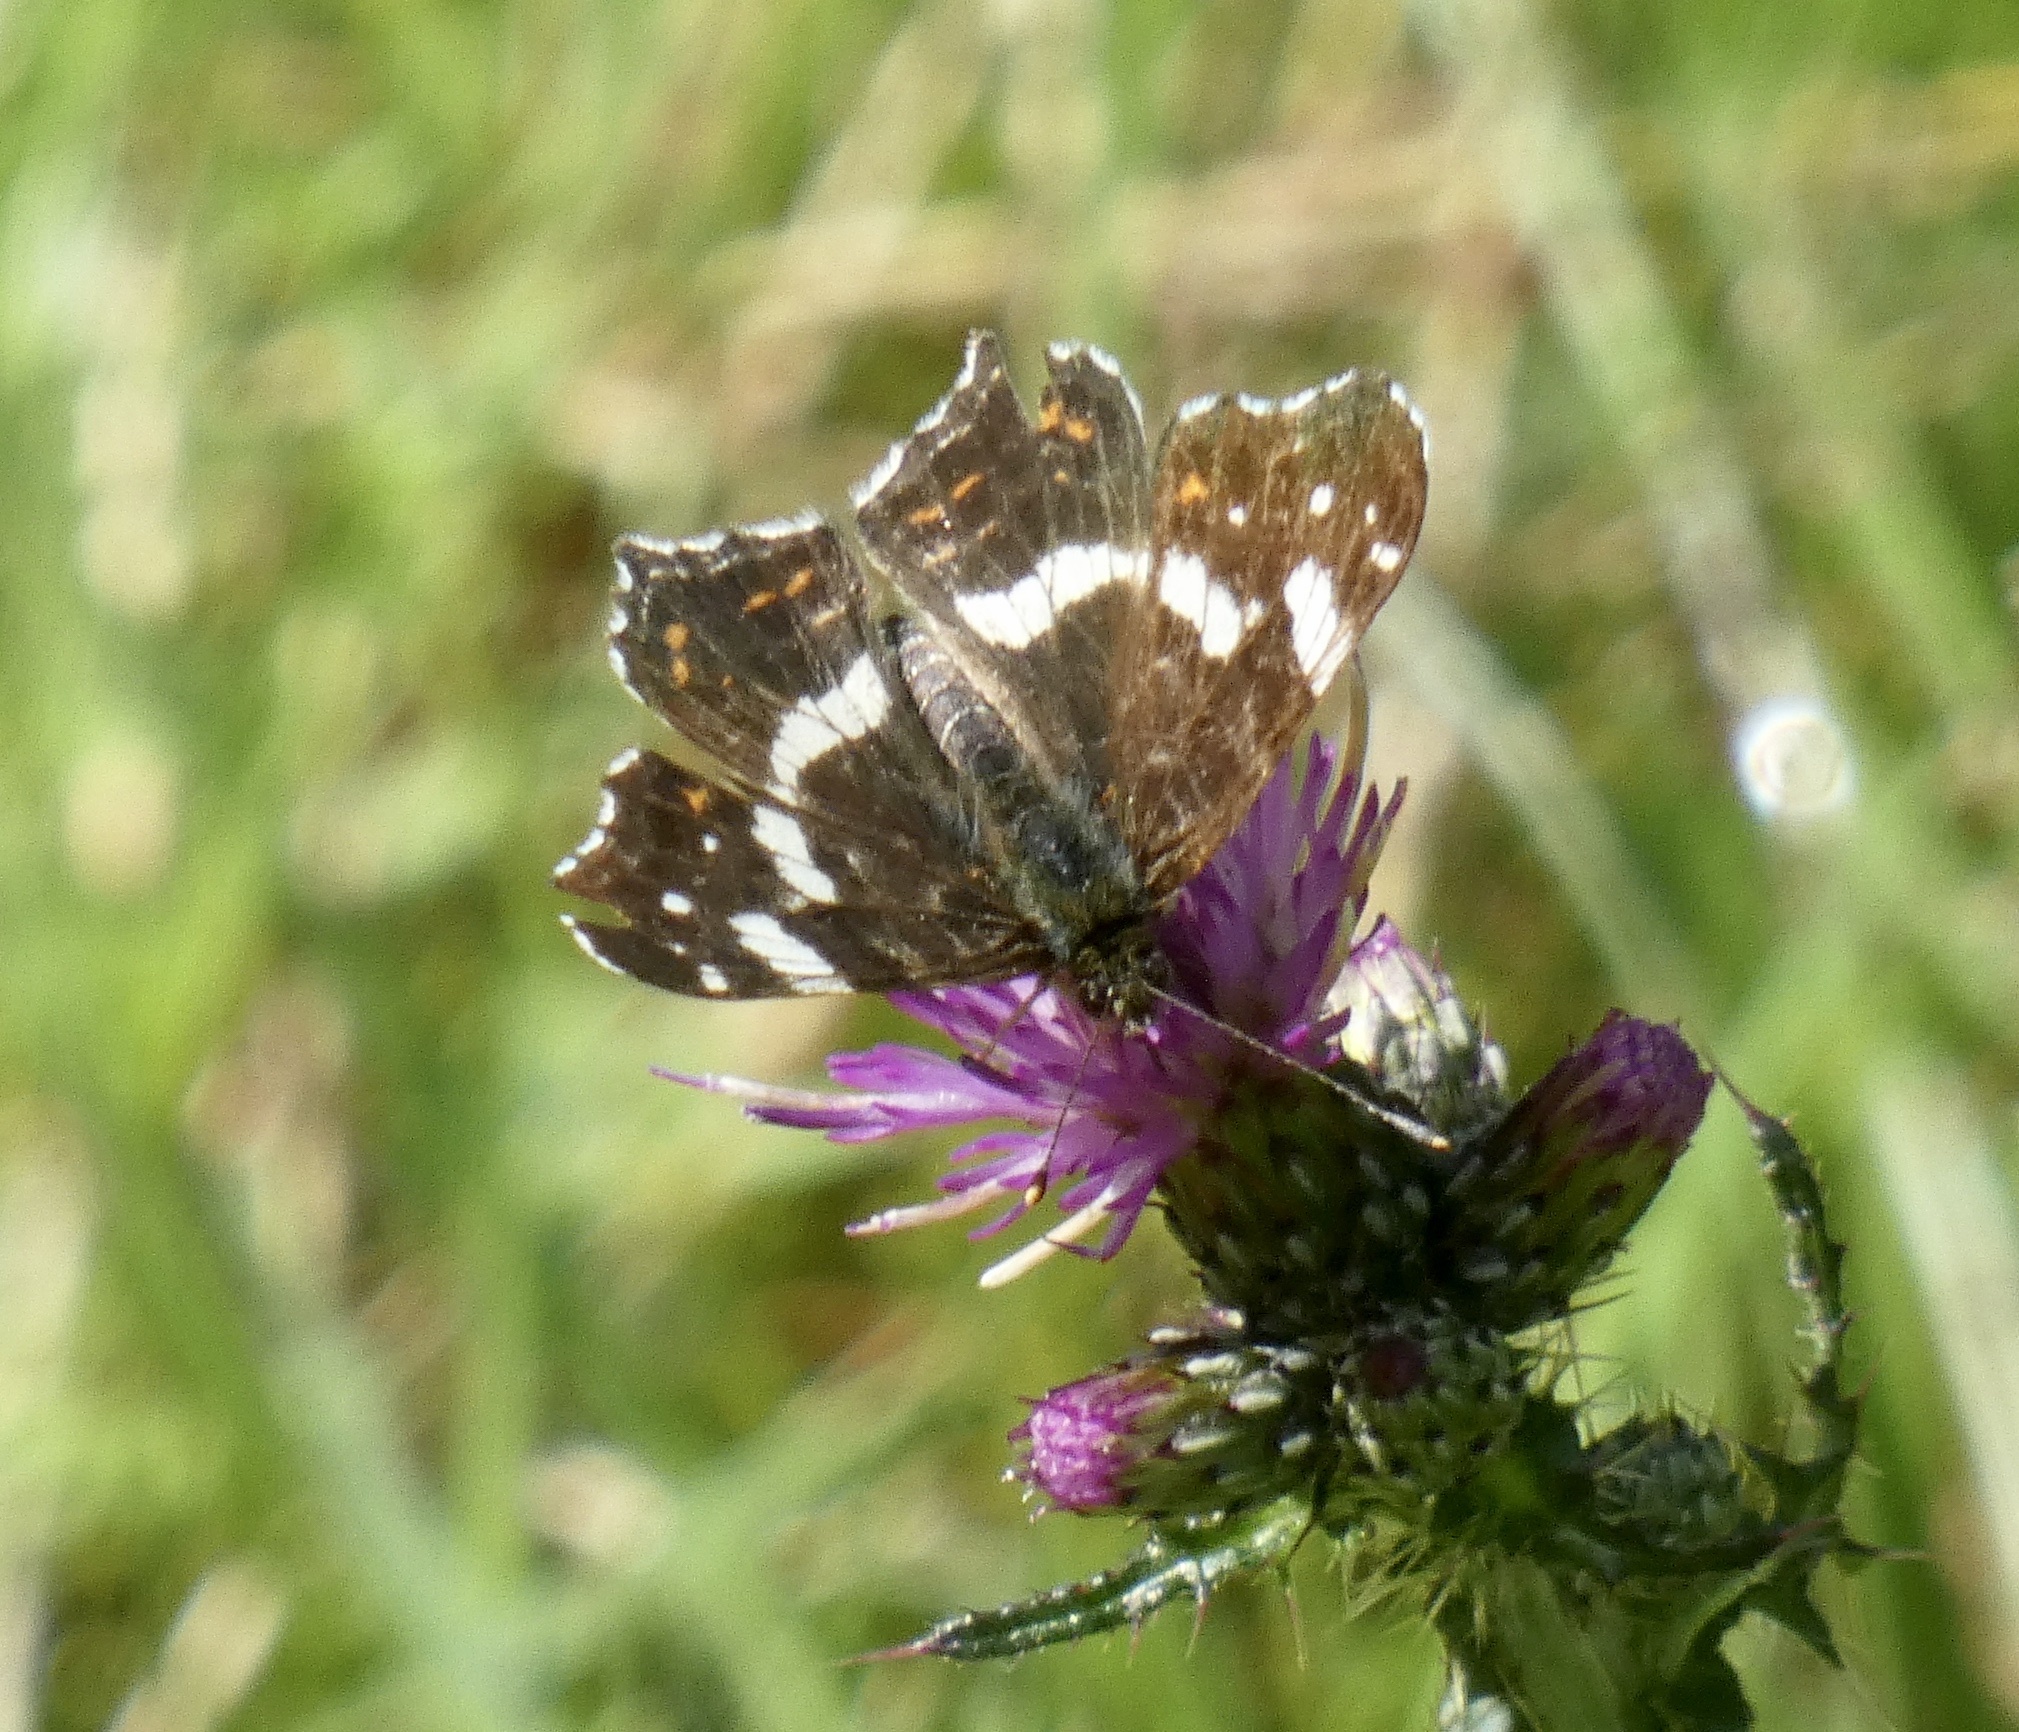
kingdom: Animalia
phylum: Arthropoda
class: Insecta
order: Lepidoptera
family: Nymphalidae
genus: Araschnia
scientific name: Araschnia levana
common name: Map butterfly
